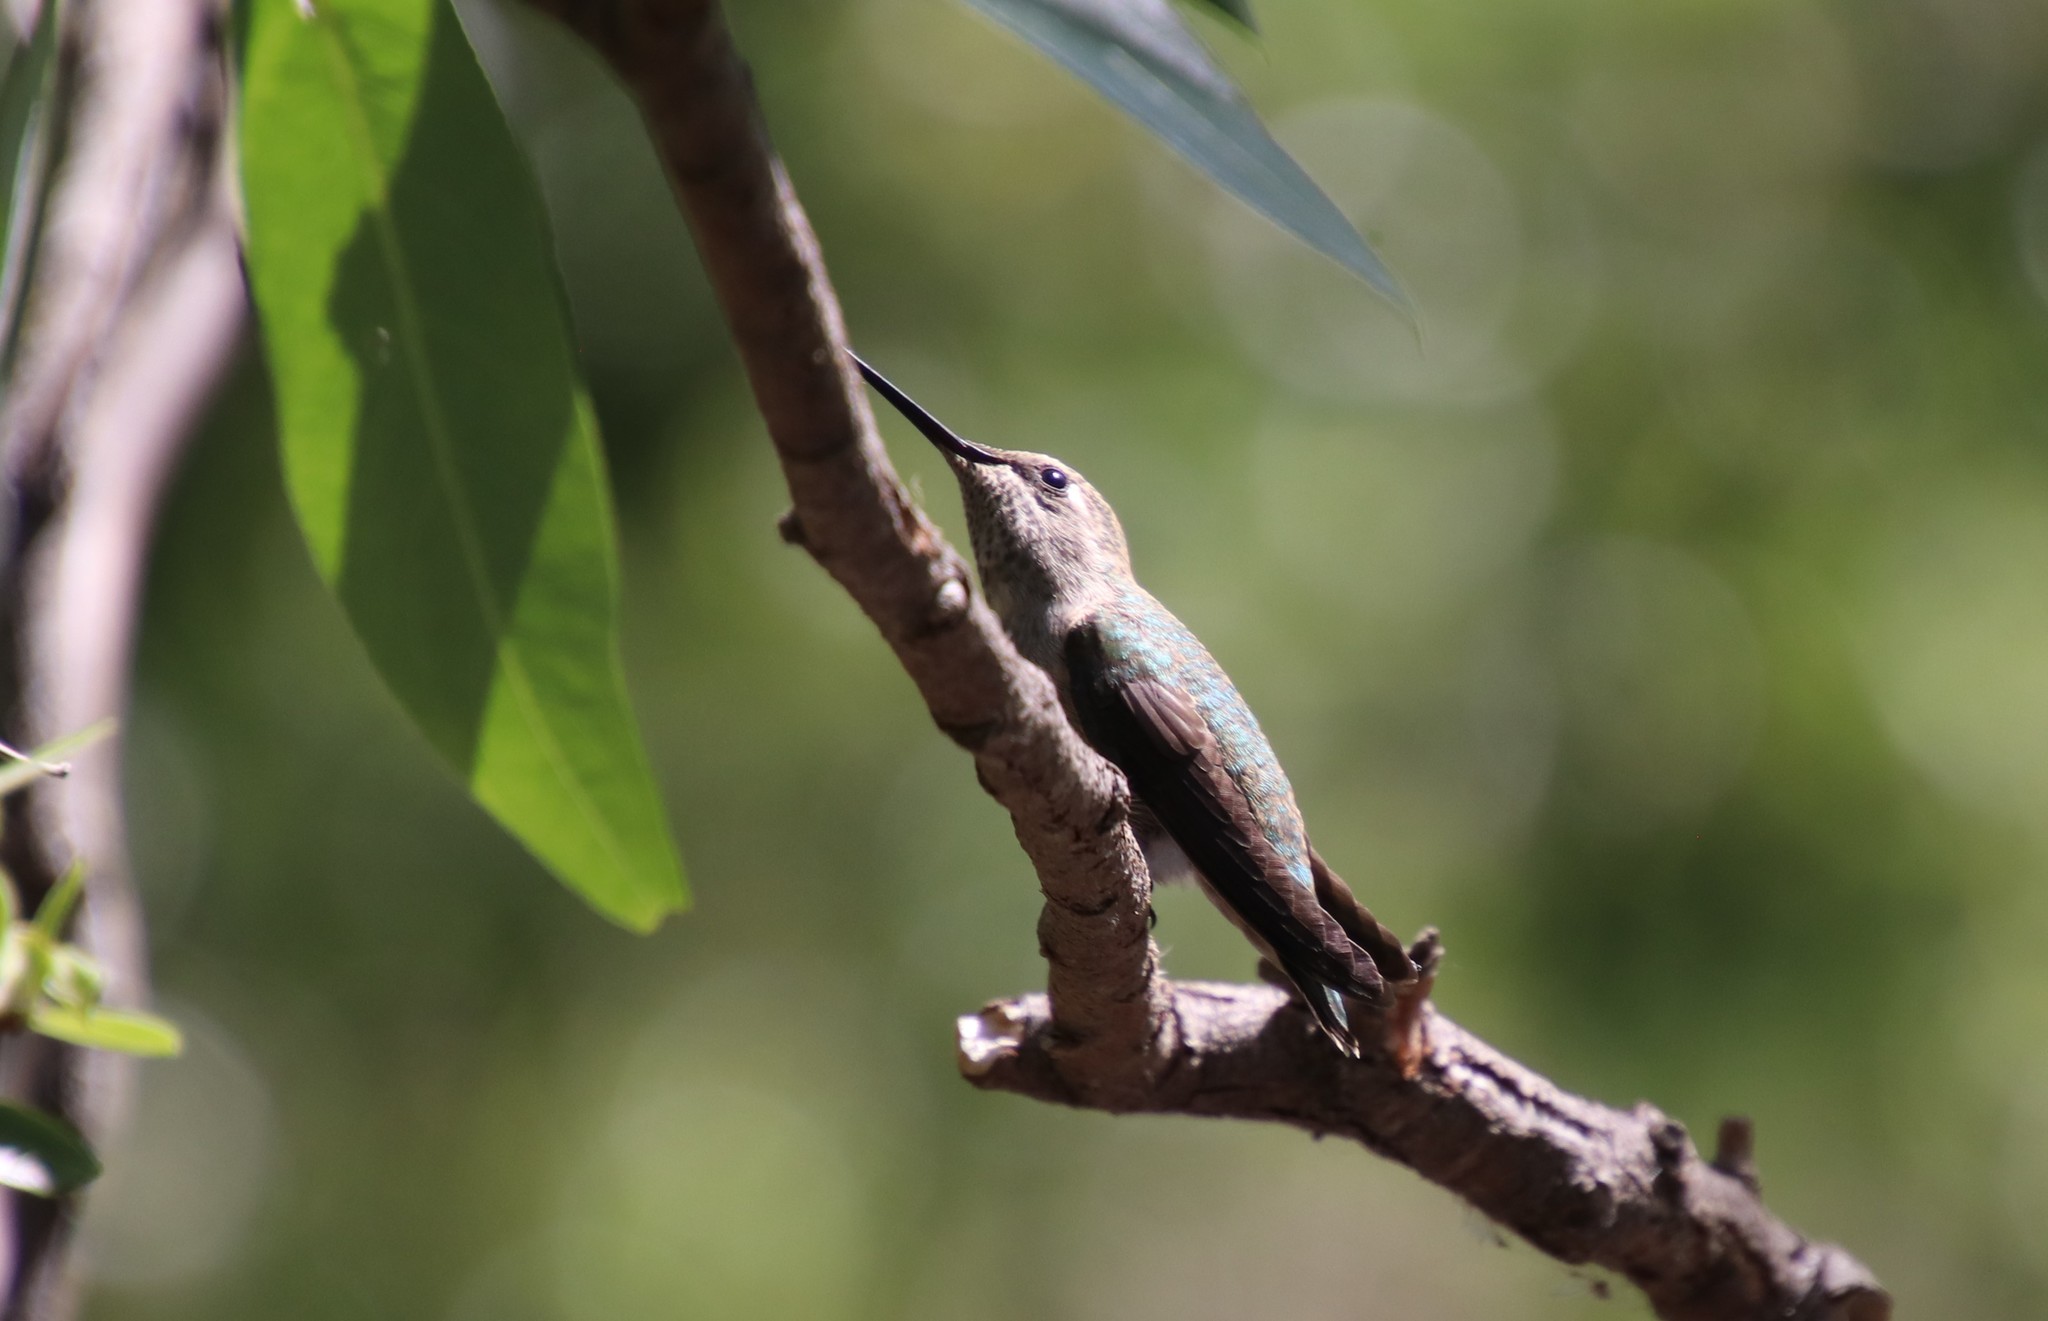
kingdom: Animalia
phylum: Chordata
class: Aves
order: Apodiformes
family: Trochilidae
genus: Calypte
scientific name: Calypte anna
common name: Anna's hummingbird
